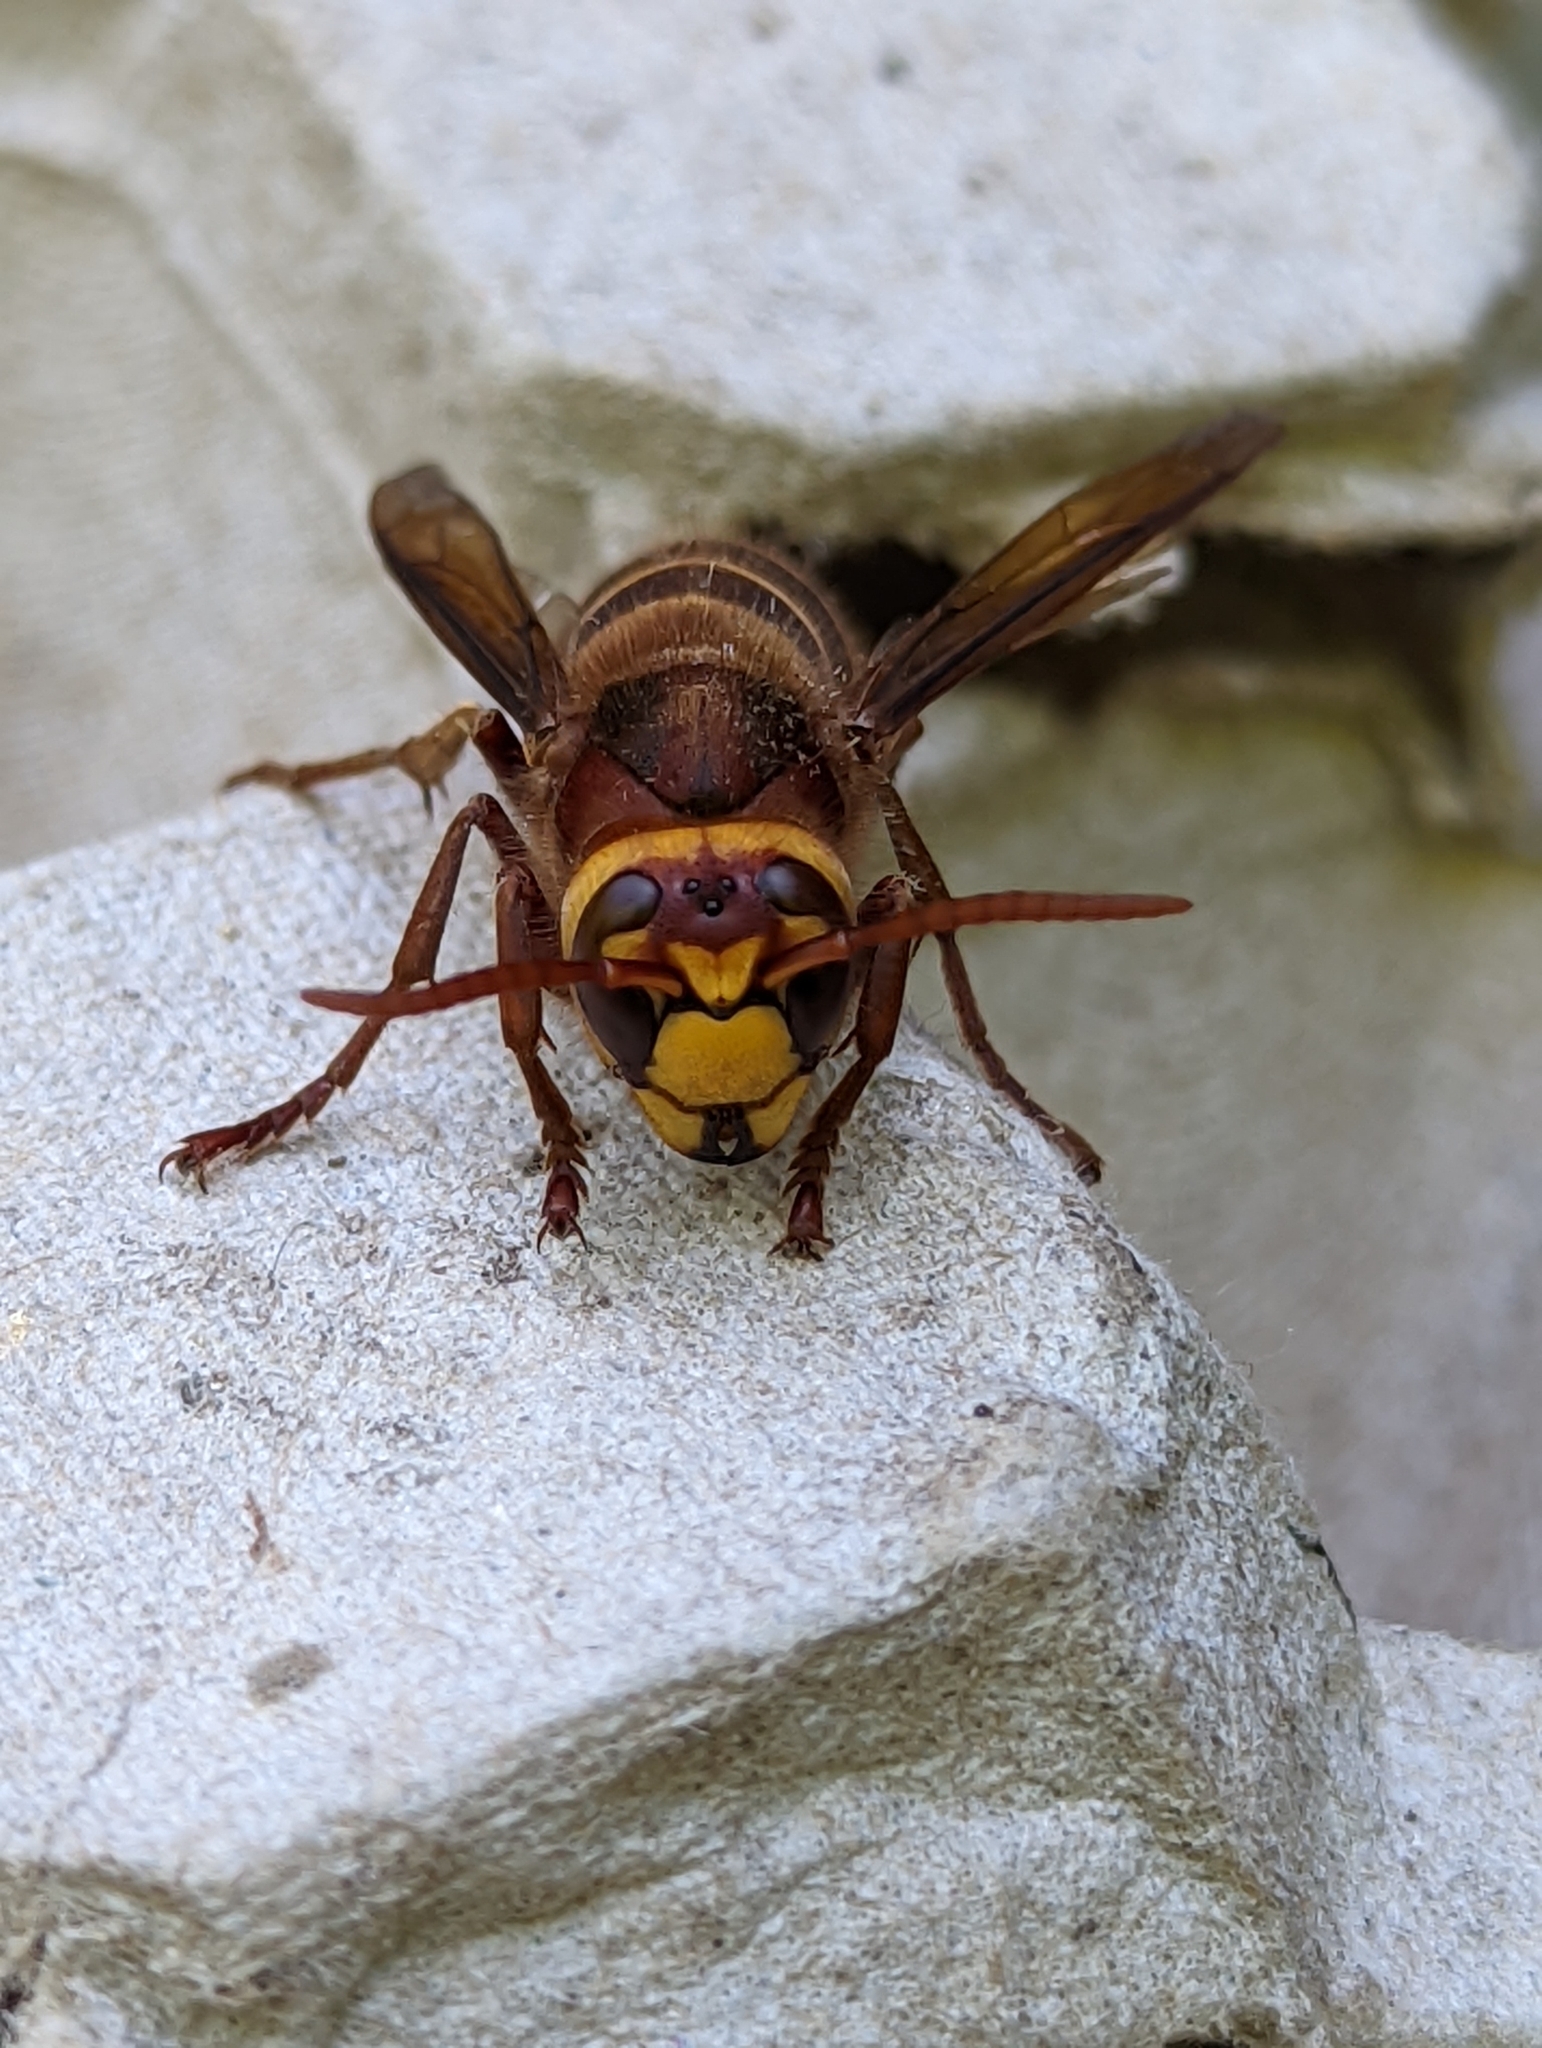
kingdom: Animalia
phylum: Arthropoda
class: Insecta
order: Hymenoptera
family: Vespidae
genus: Vespa
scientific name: Vespa crabro
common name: Hornet
